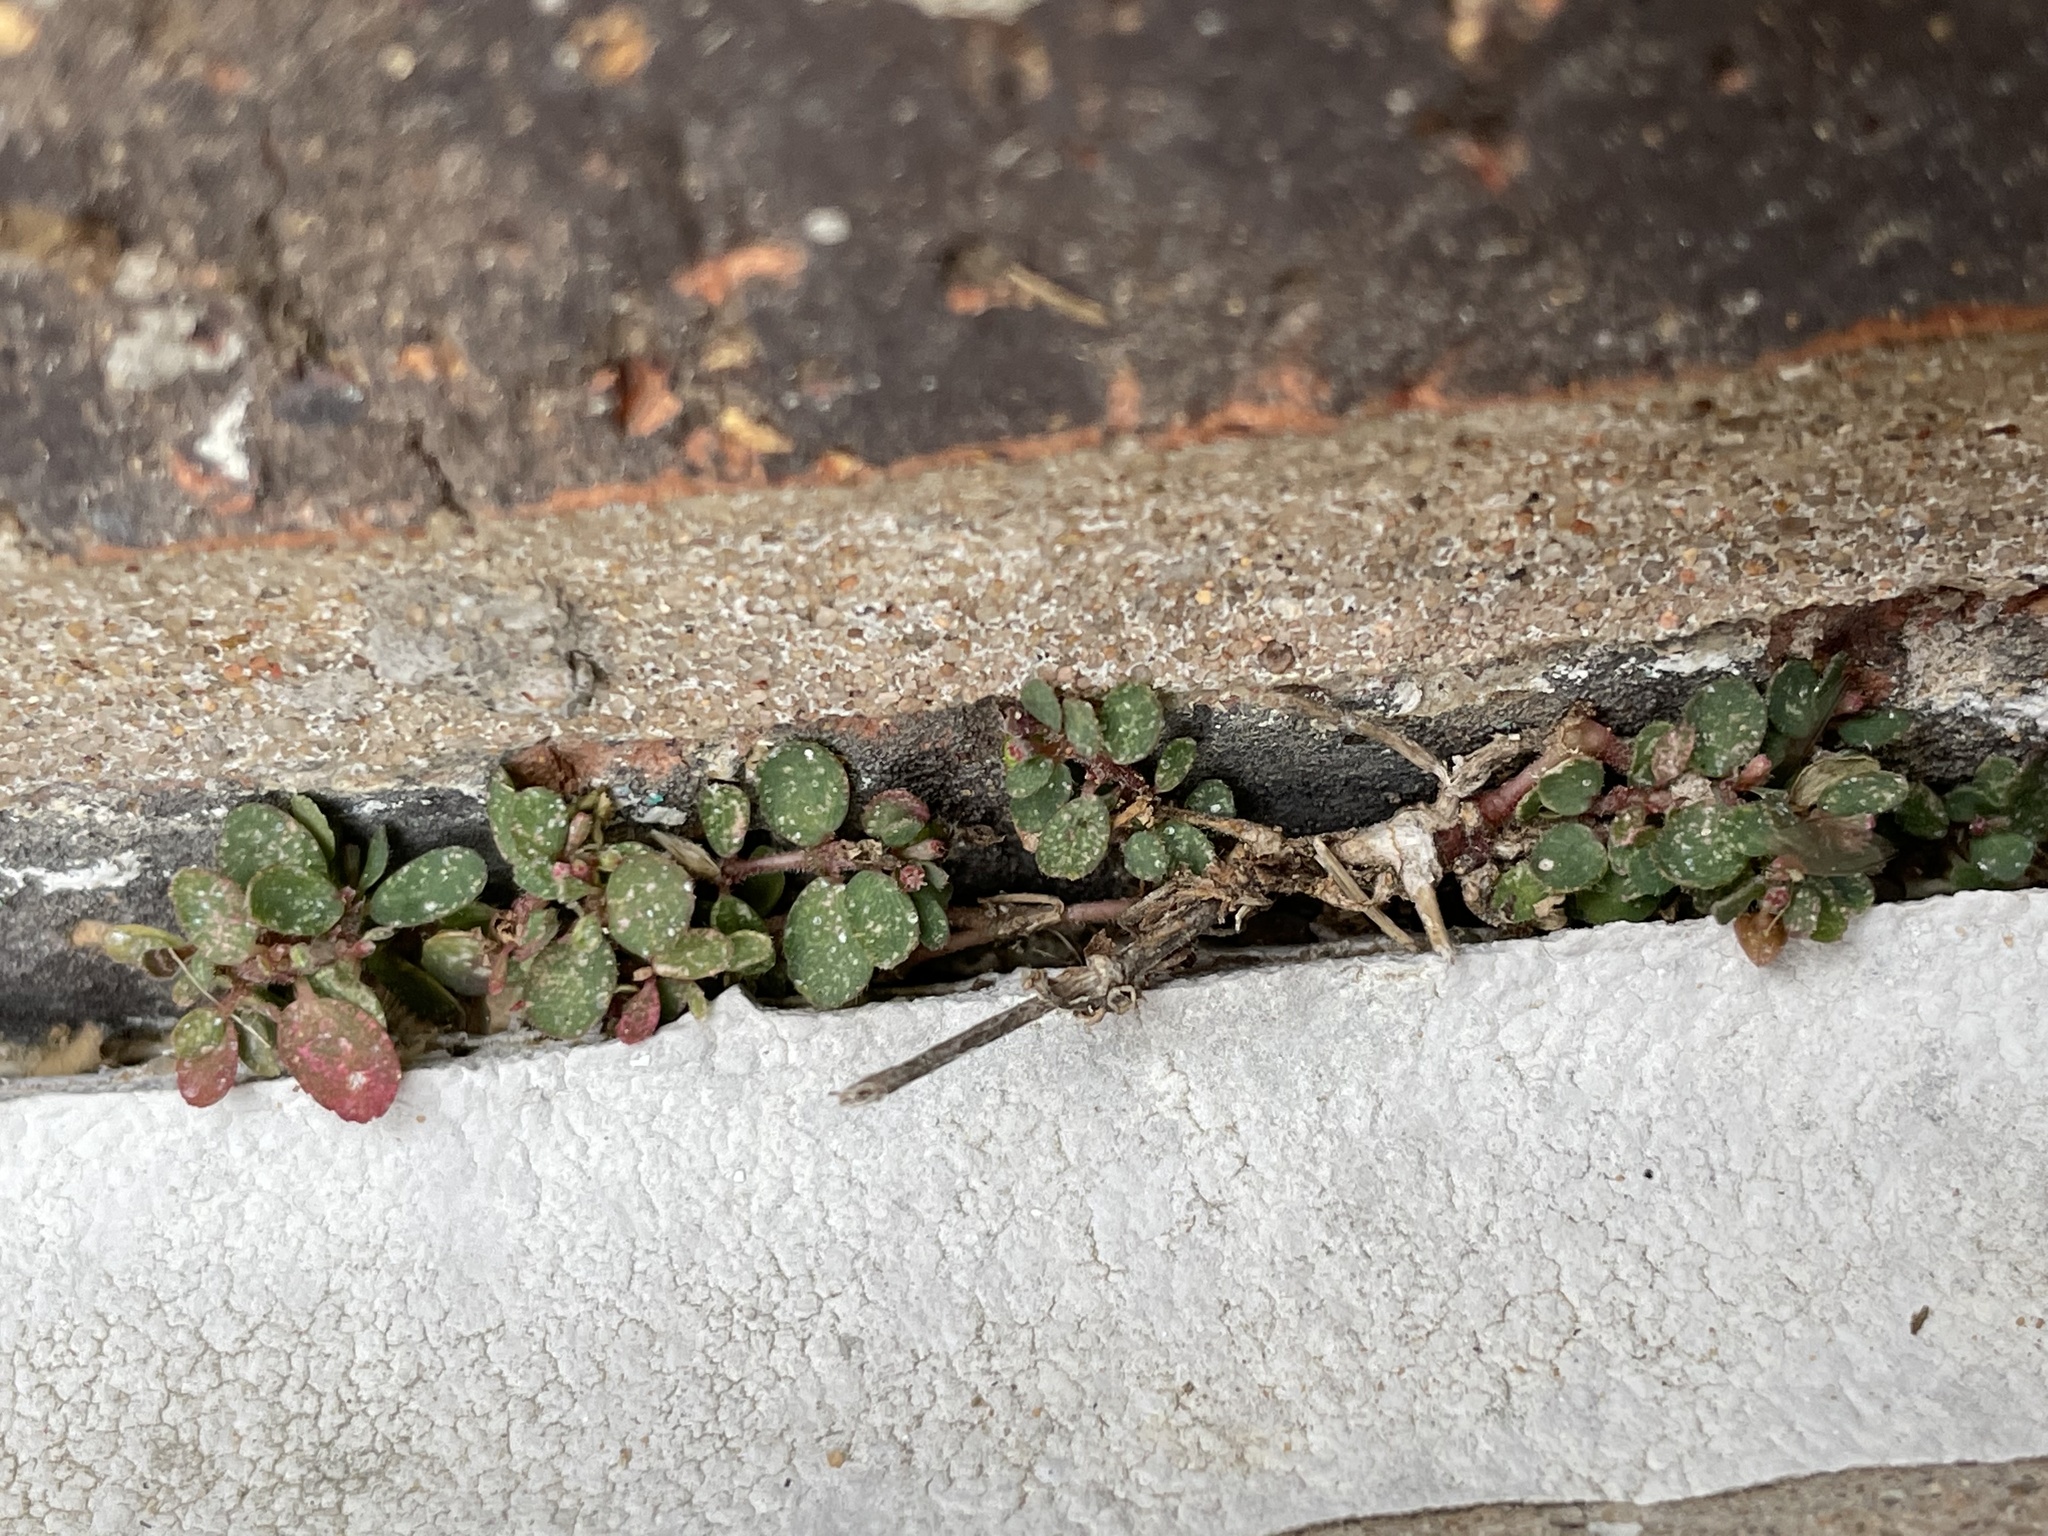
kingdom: Plantae
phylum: Tracheophyta
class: Magnoliopsida
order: Malpighiales
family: Euphorbiaceae
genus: Euphorbia
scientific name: Euphorbia prostrata
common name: Prostrate sandmat
